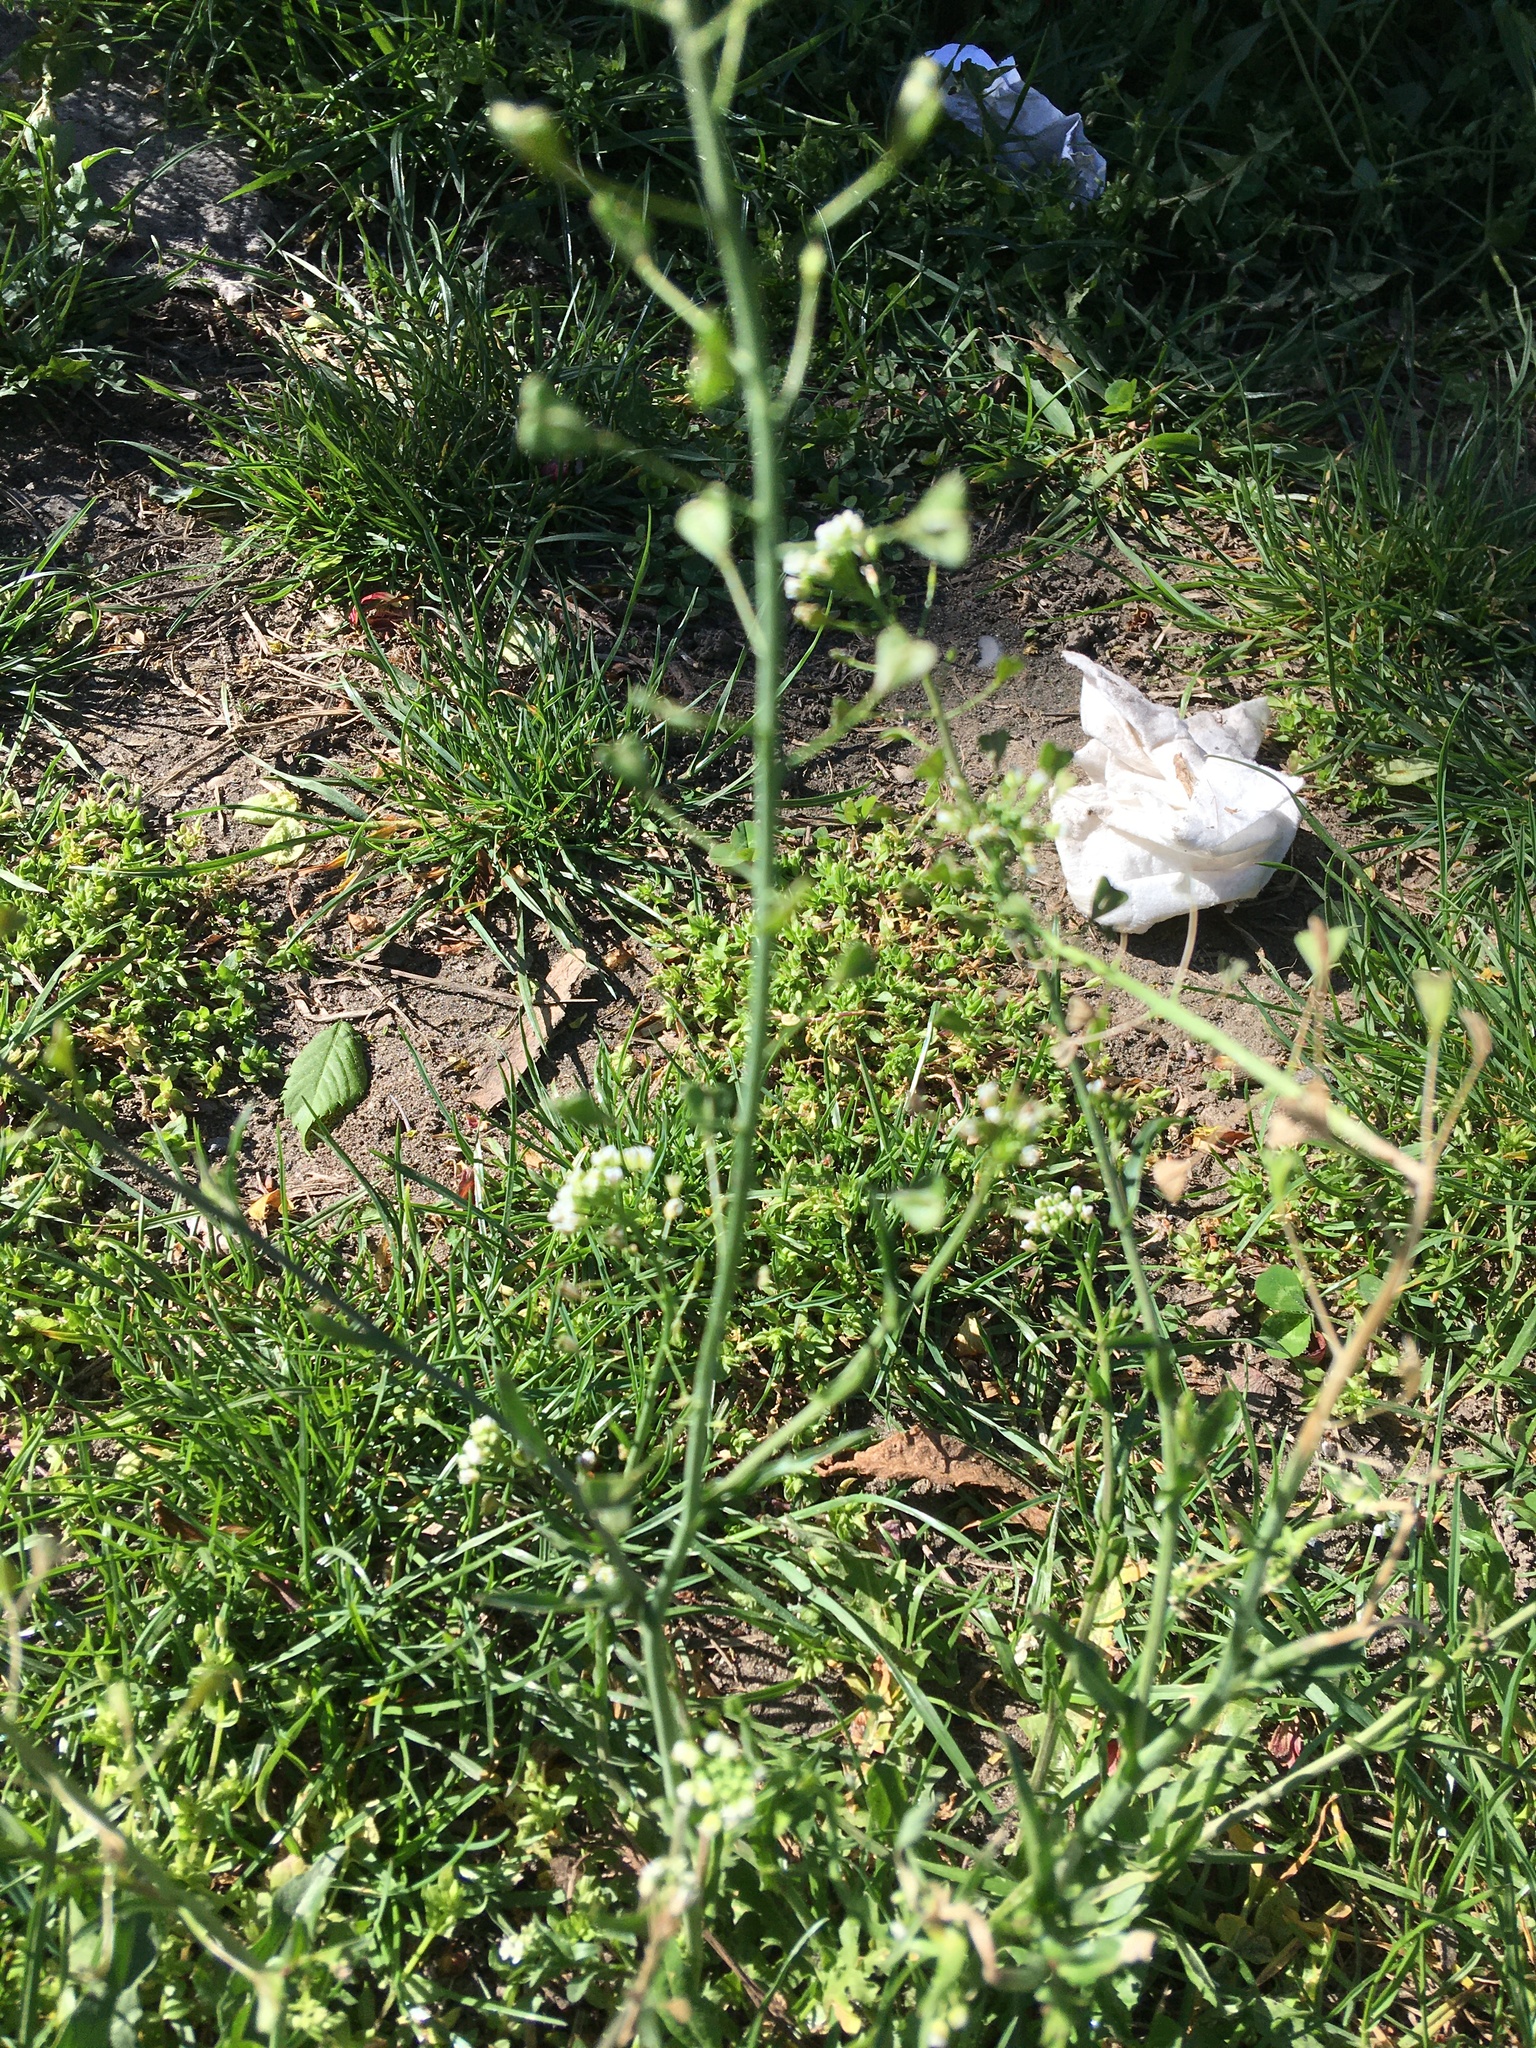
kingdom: Plantae
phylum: Tracheophyta
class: Magnoliopsida
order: Brassicales
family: Brassicaceae
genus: Capsella
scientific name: Capsella bursa-pastoris
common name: Shepherd's purse
